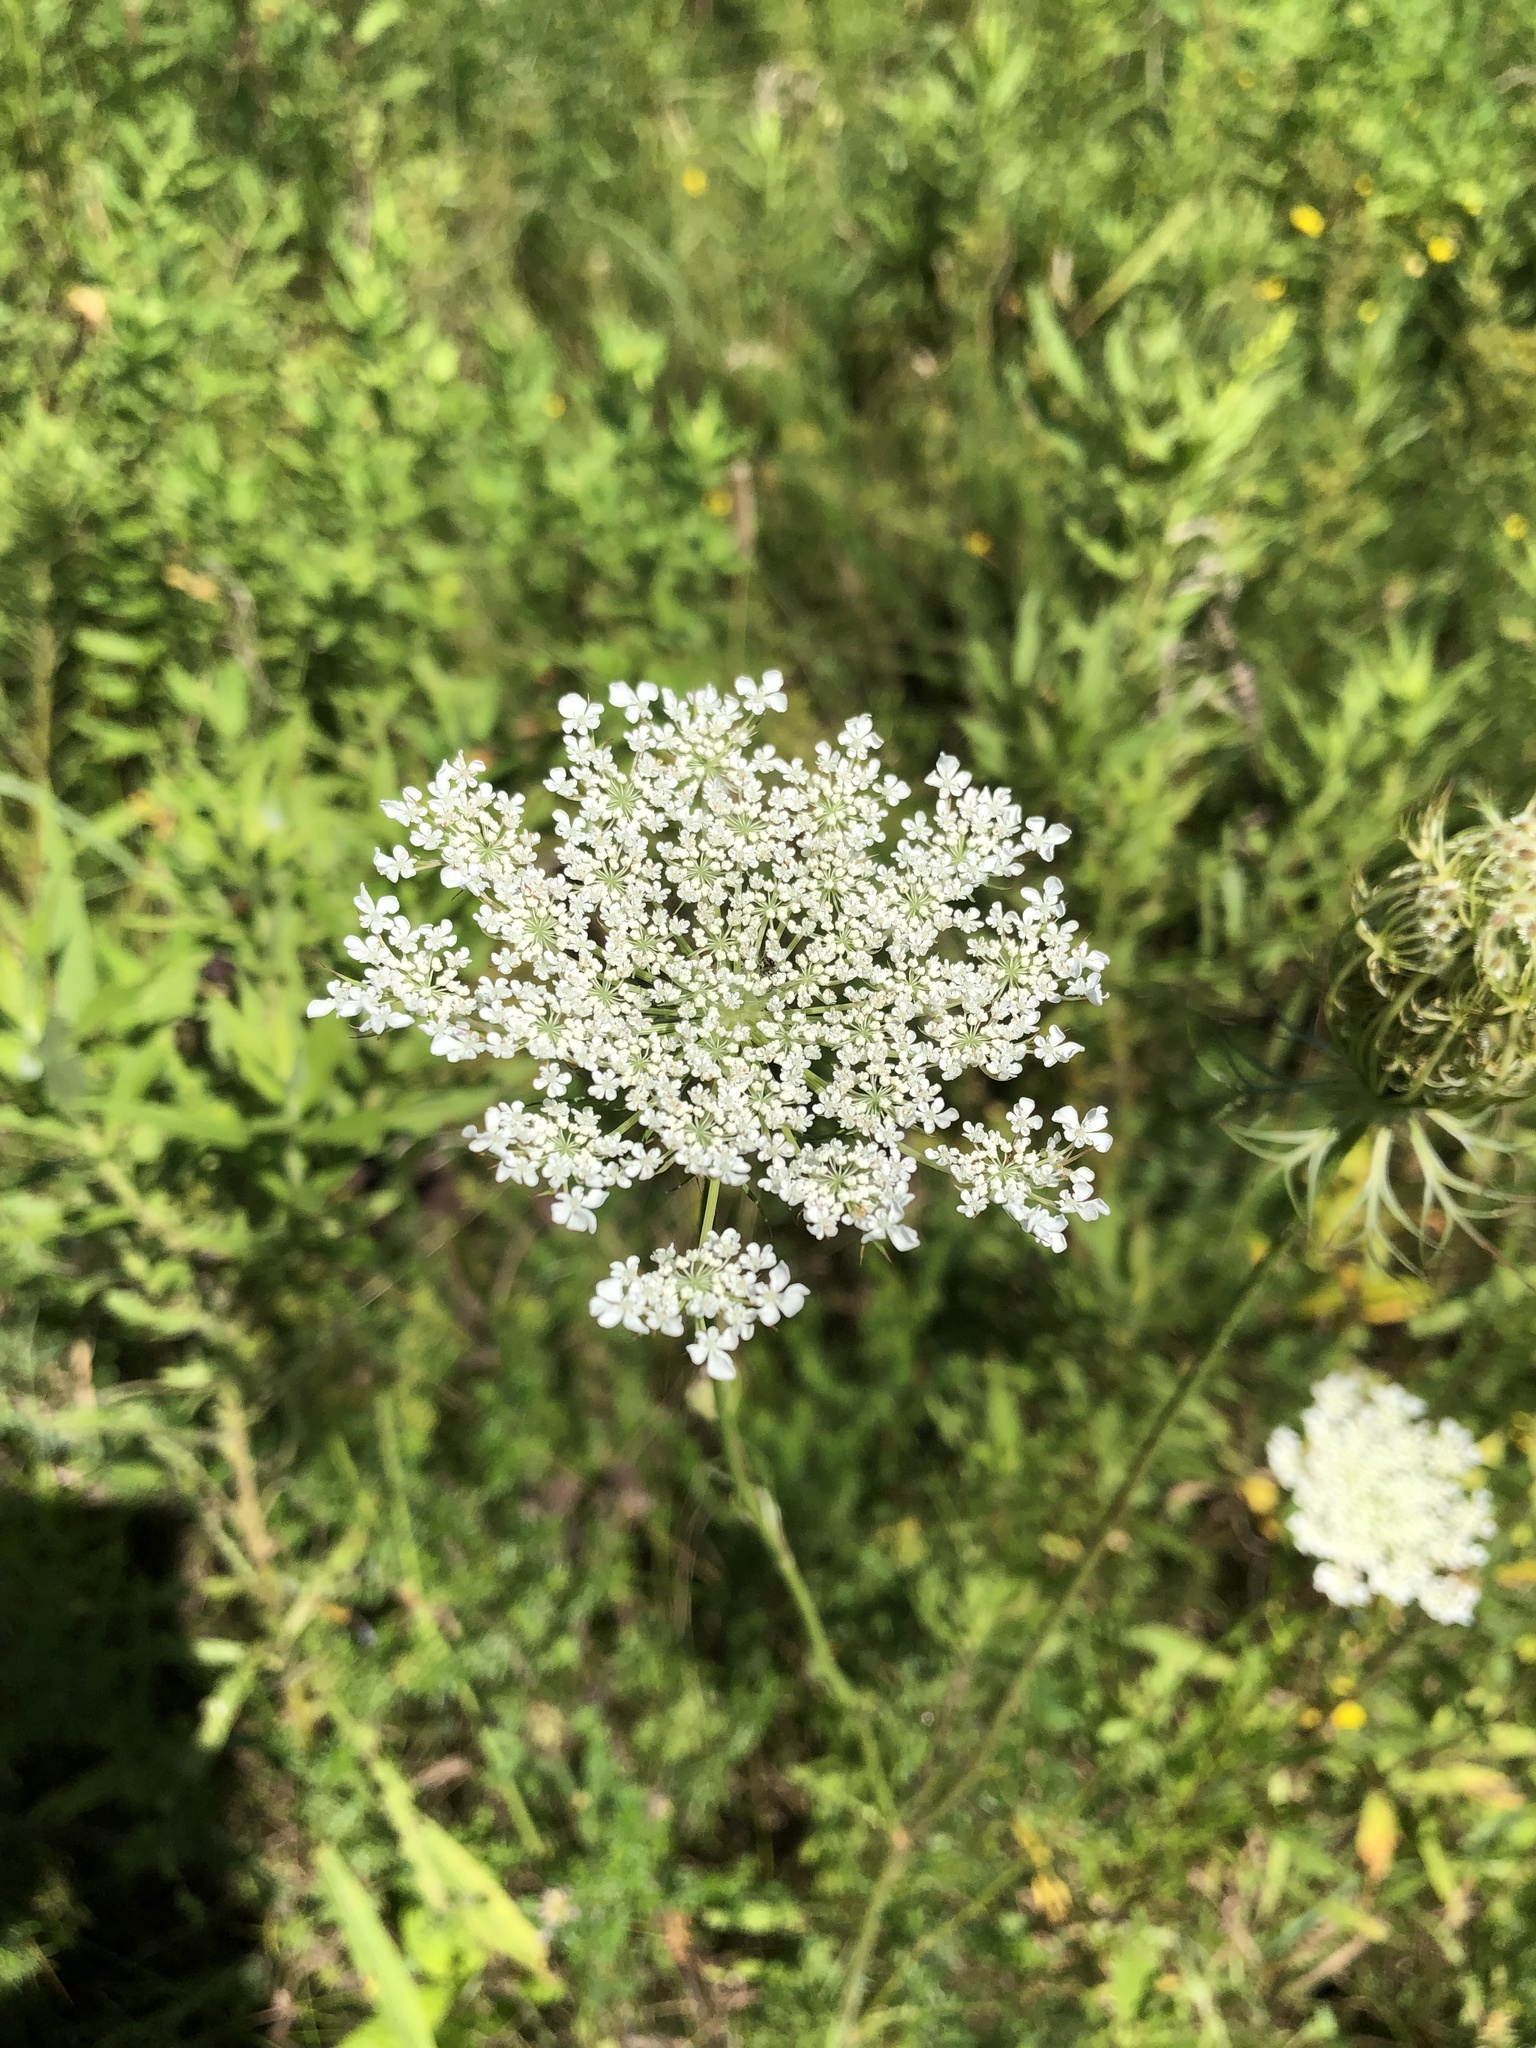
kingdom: Plantae
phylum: Tracheophyta
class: Magnoliopsida
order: Apiales
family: Apiaceae
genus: Daucus
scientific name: Daucus carota
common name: Wild carrot
